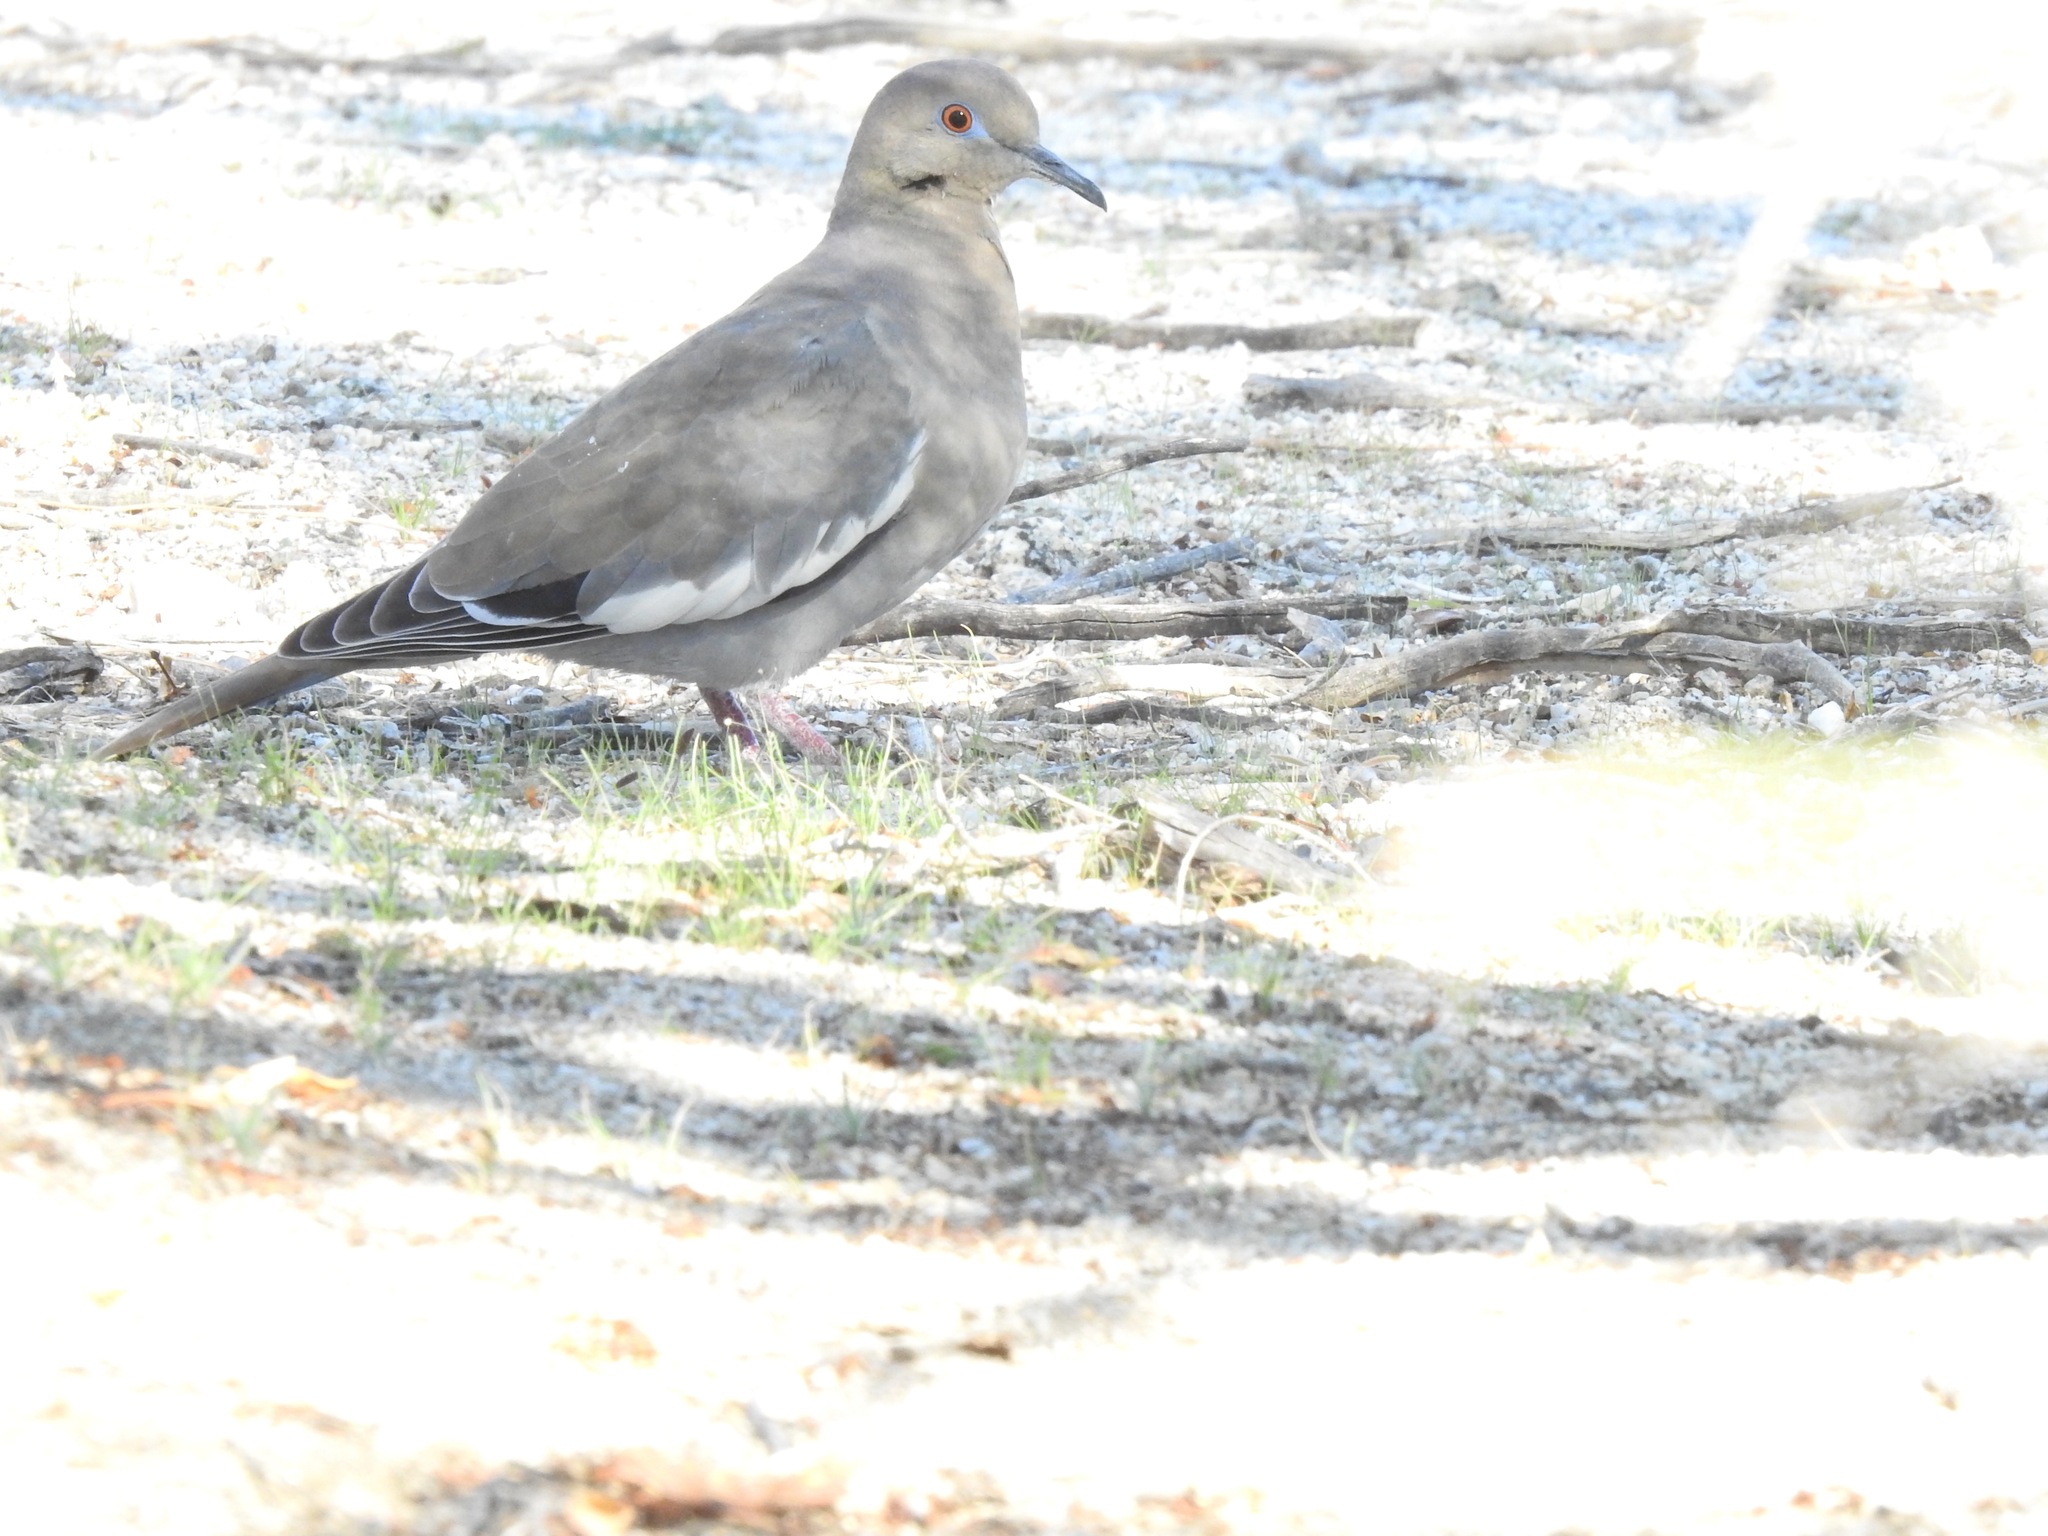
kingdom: Animalia
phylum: Chordata
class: Aves
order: Columbiformes
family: Columbidae
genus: Zenaida
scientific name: Zenaida asiatica
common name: White-winged dove
